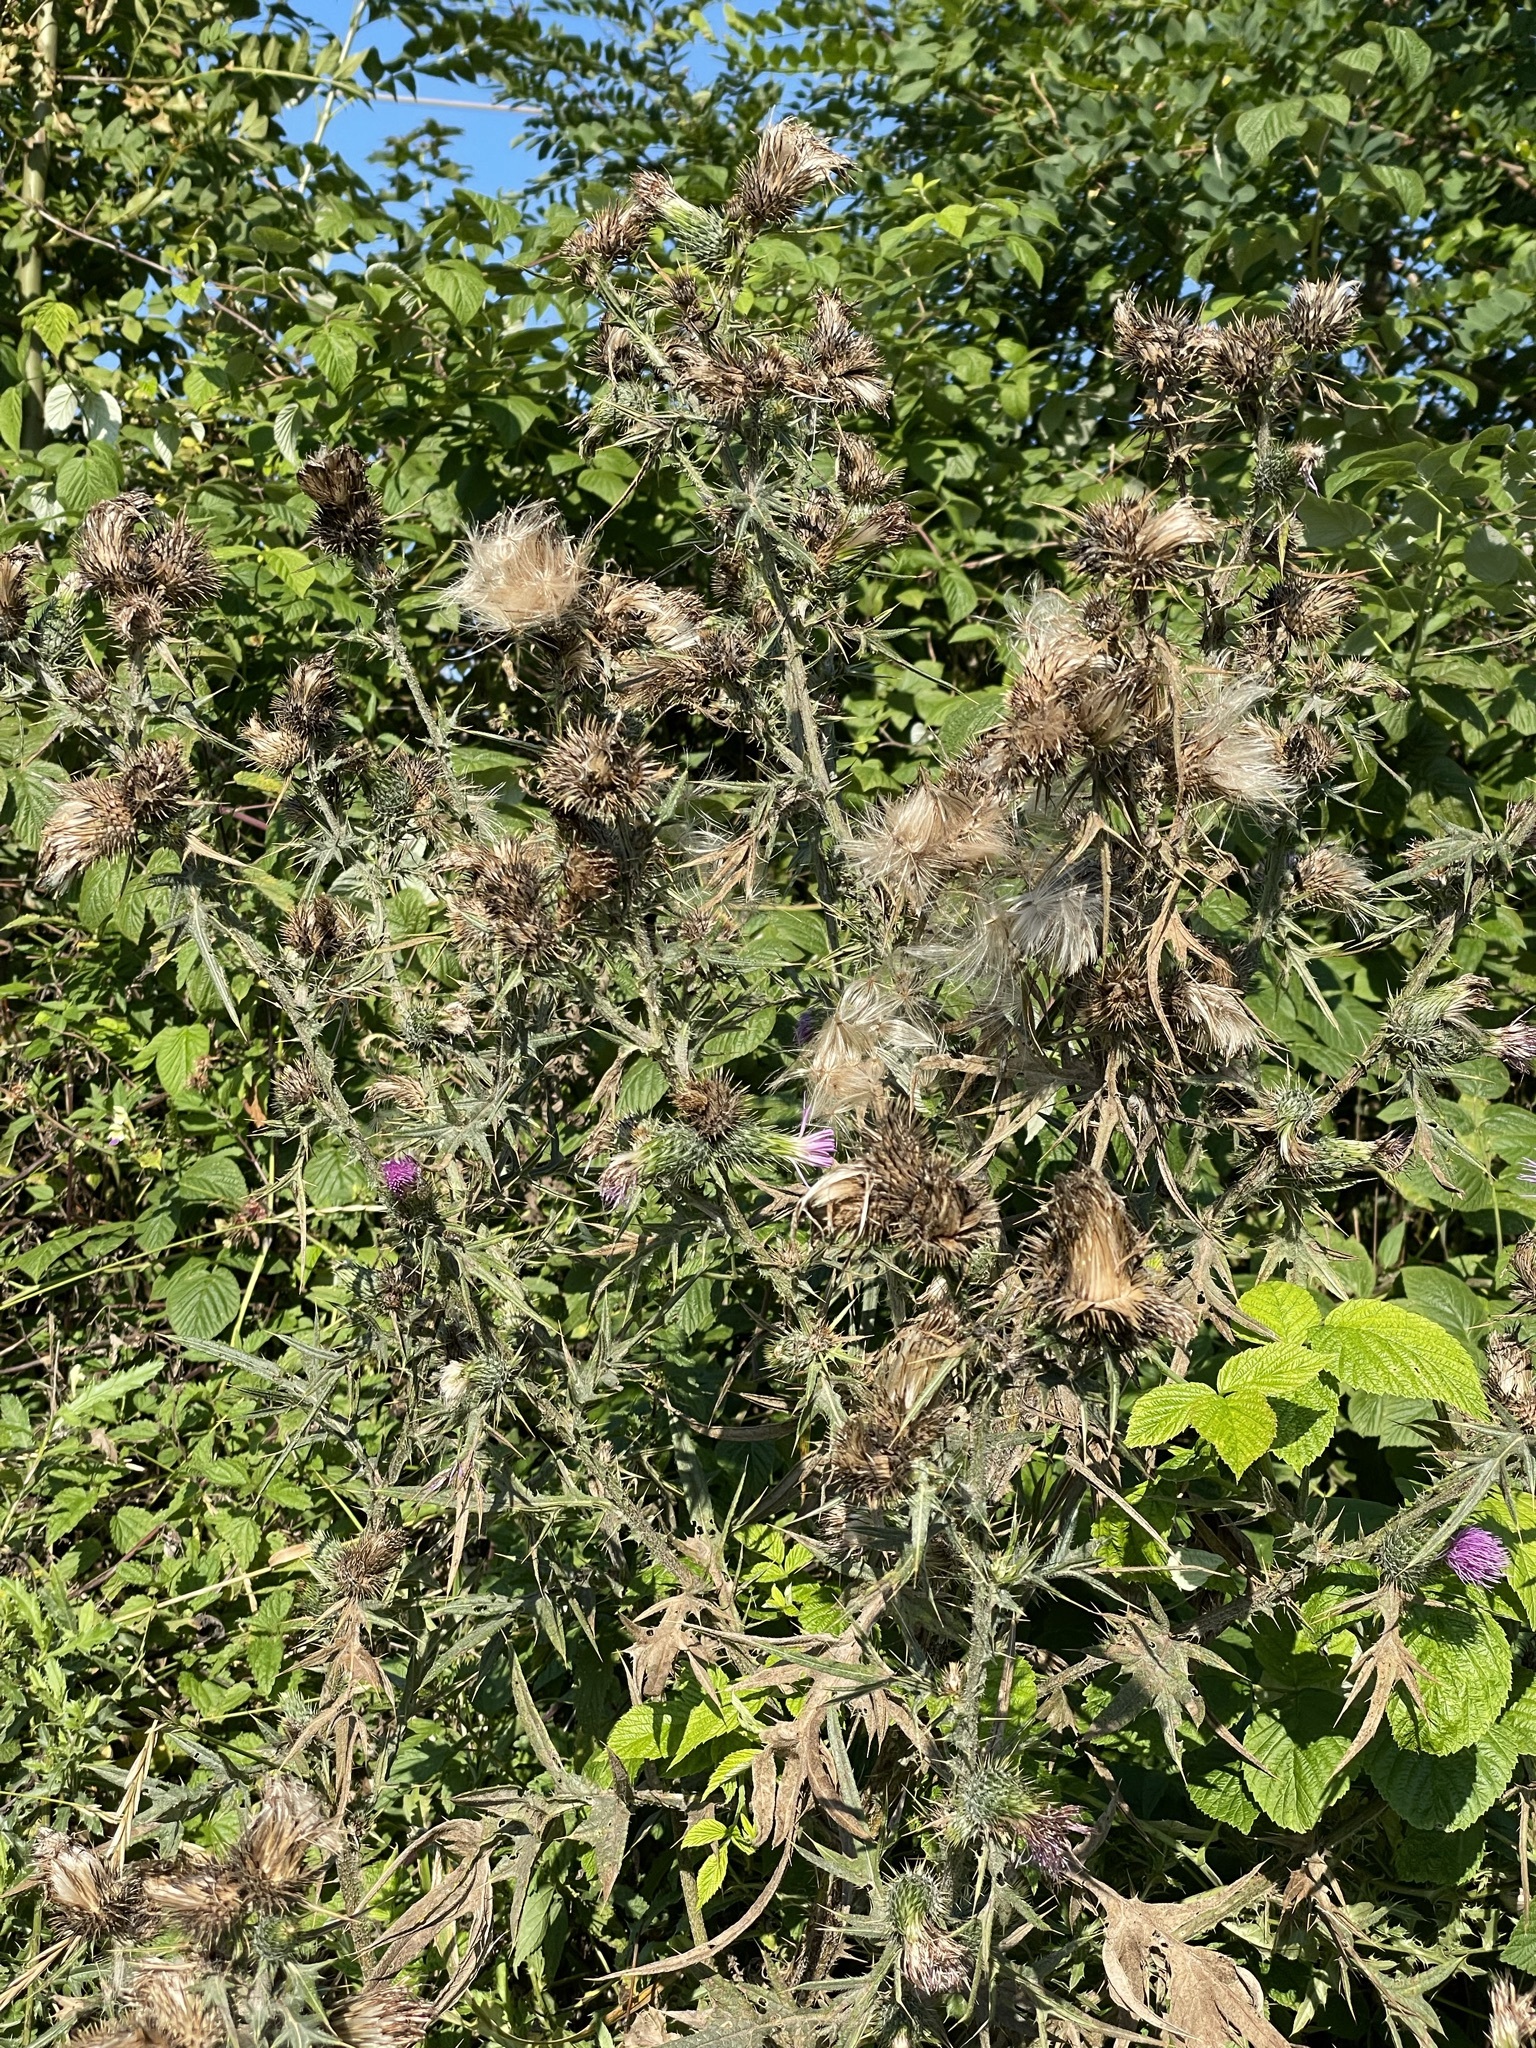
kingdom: Plantae
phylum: Tracheophyta
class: Magnoliopsida
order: Asterales
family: Asteraceae
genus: Cirsium
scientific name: Cirsium vulgare
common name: Bull thistle
